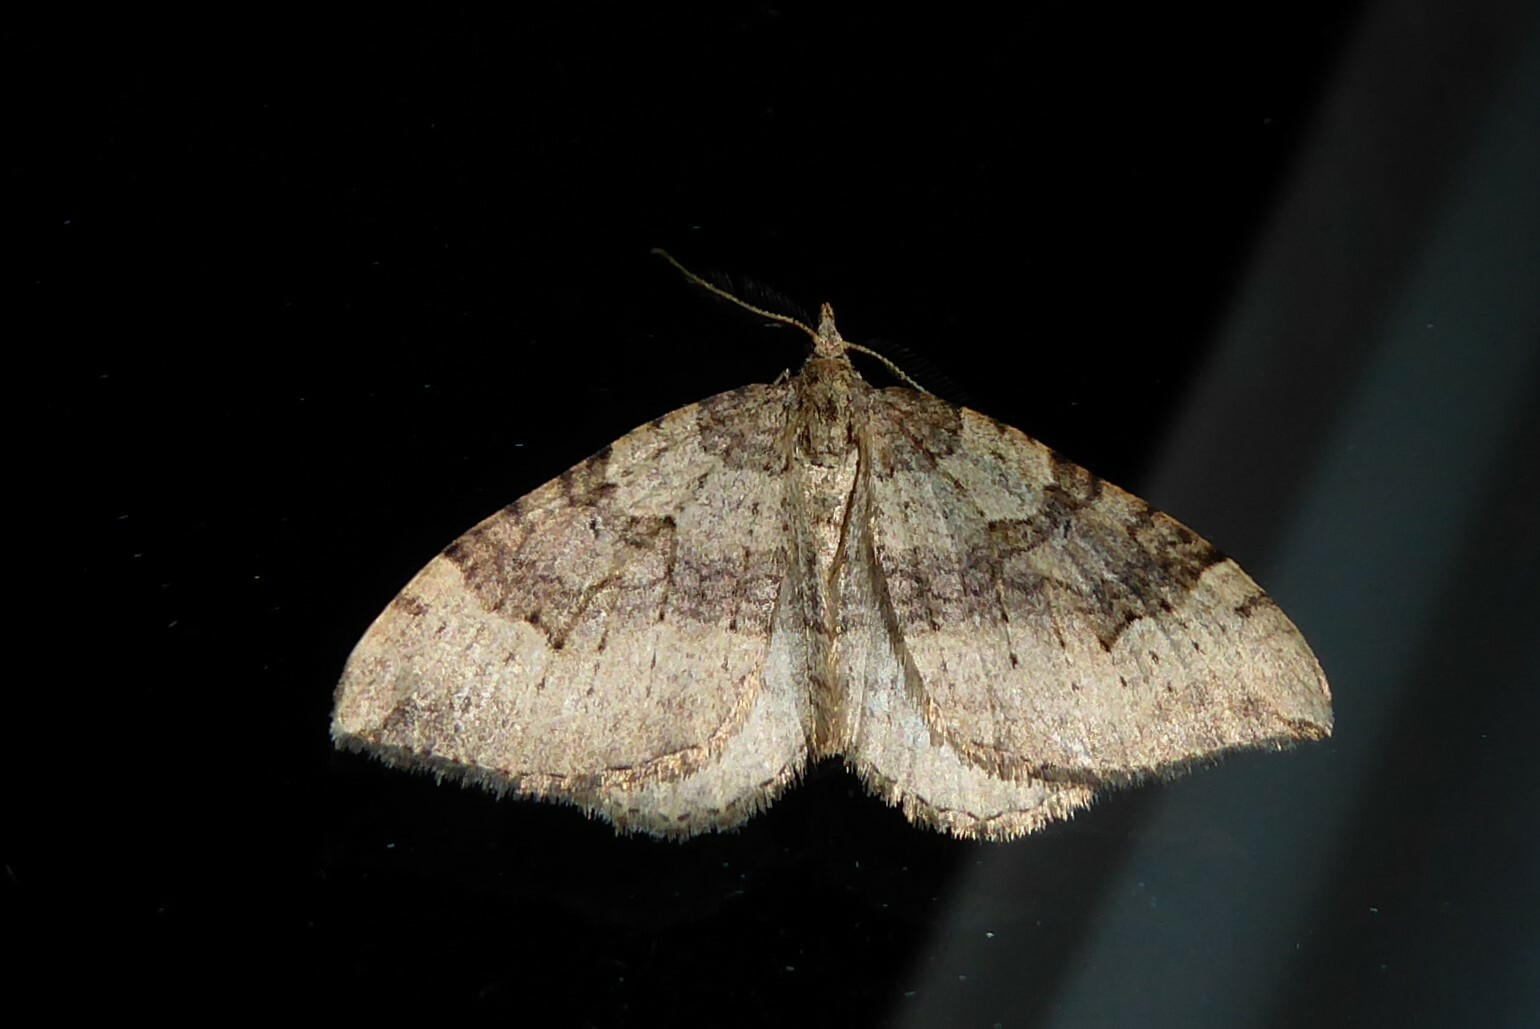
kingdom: Animalia
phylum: Arthropoda
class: Insecta
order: Lepidoptera
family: Geometridae
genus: Epyaxa
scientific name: Epyaxa rosearia
